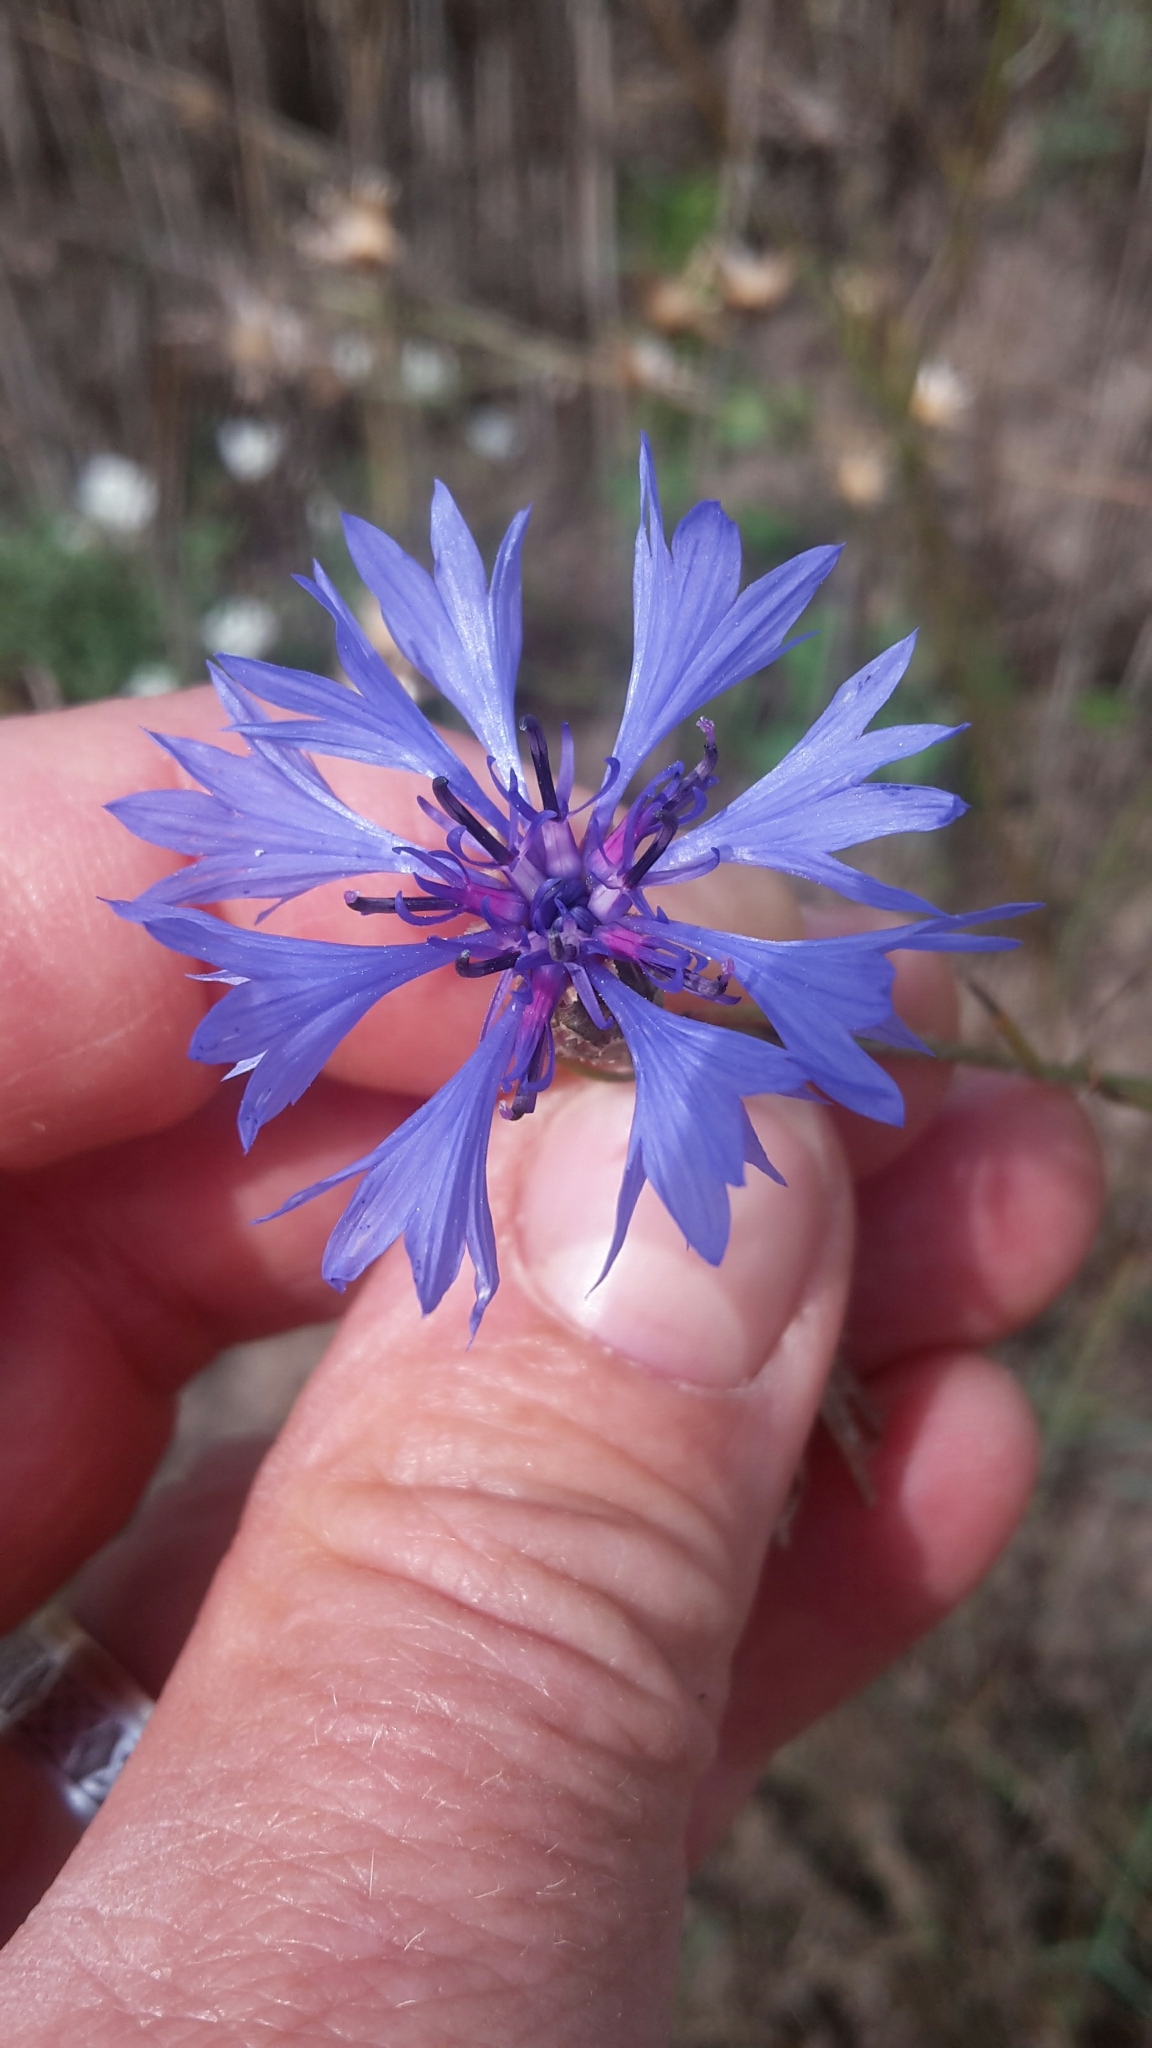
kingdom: Plantae
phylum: Tracheophyta
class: Magnoliopsida
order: Asterales
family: Asteraceae
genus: Centaurea
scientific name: Centaurea cyanus
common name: Cornflower
